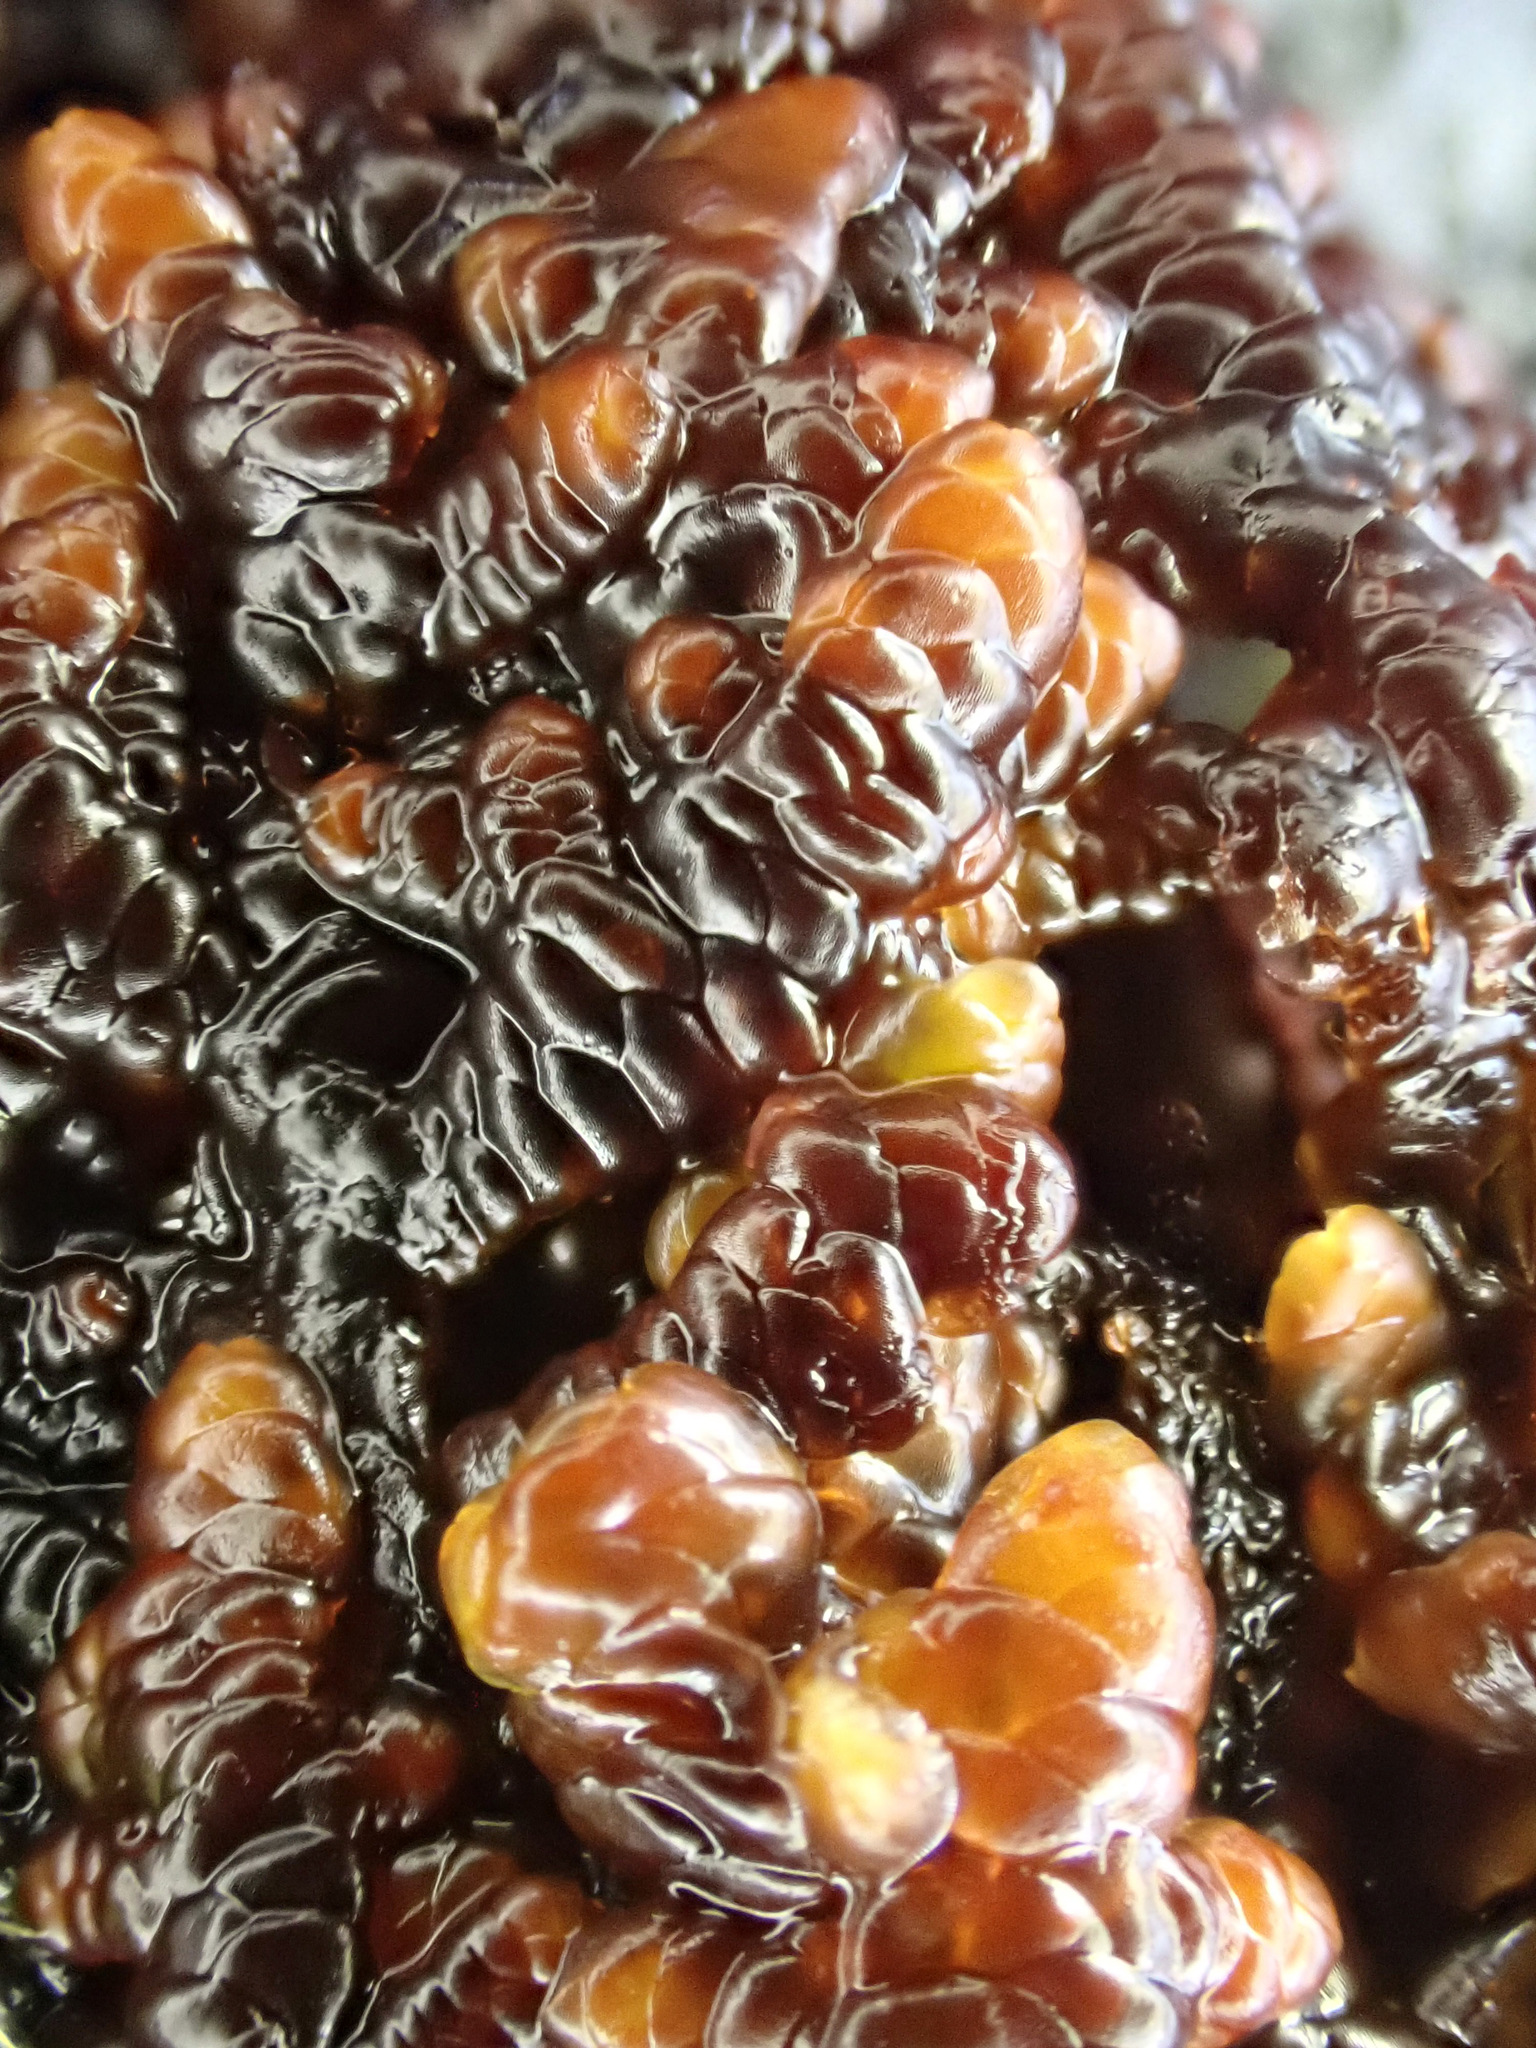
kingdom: Plantae
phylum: Marchantiophyta
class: Jungermanniopsida
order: Porellales
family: Frullaniaceae
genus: Frullania
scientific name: Frullania dilatata
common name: Dilated scalewort
